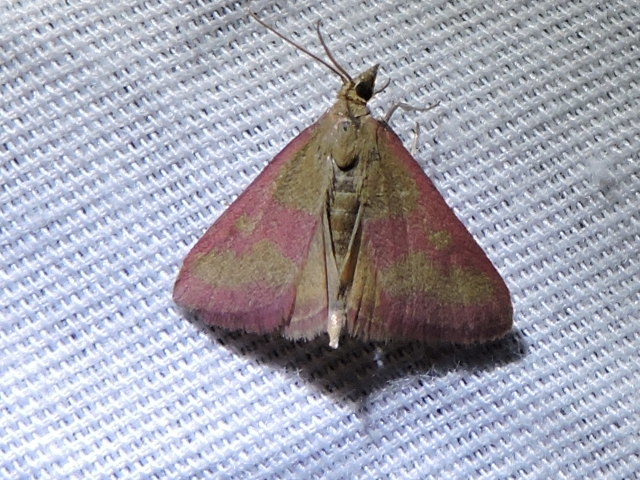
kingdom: Animalia
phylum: Arthropoda
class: Insecta
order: Lepidoptera
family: Crambidae
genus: Pyrausta
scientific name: Pyrausta laticlavia
